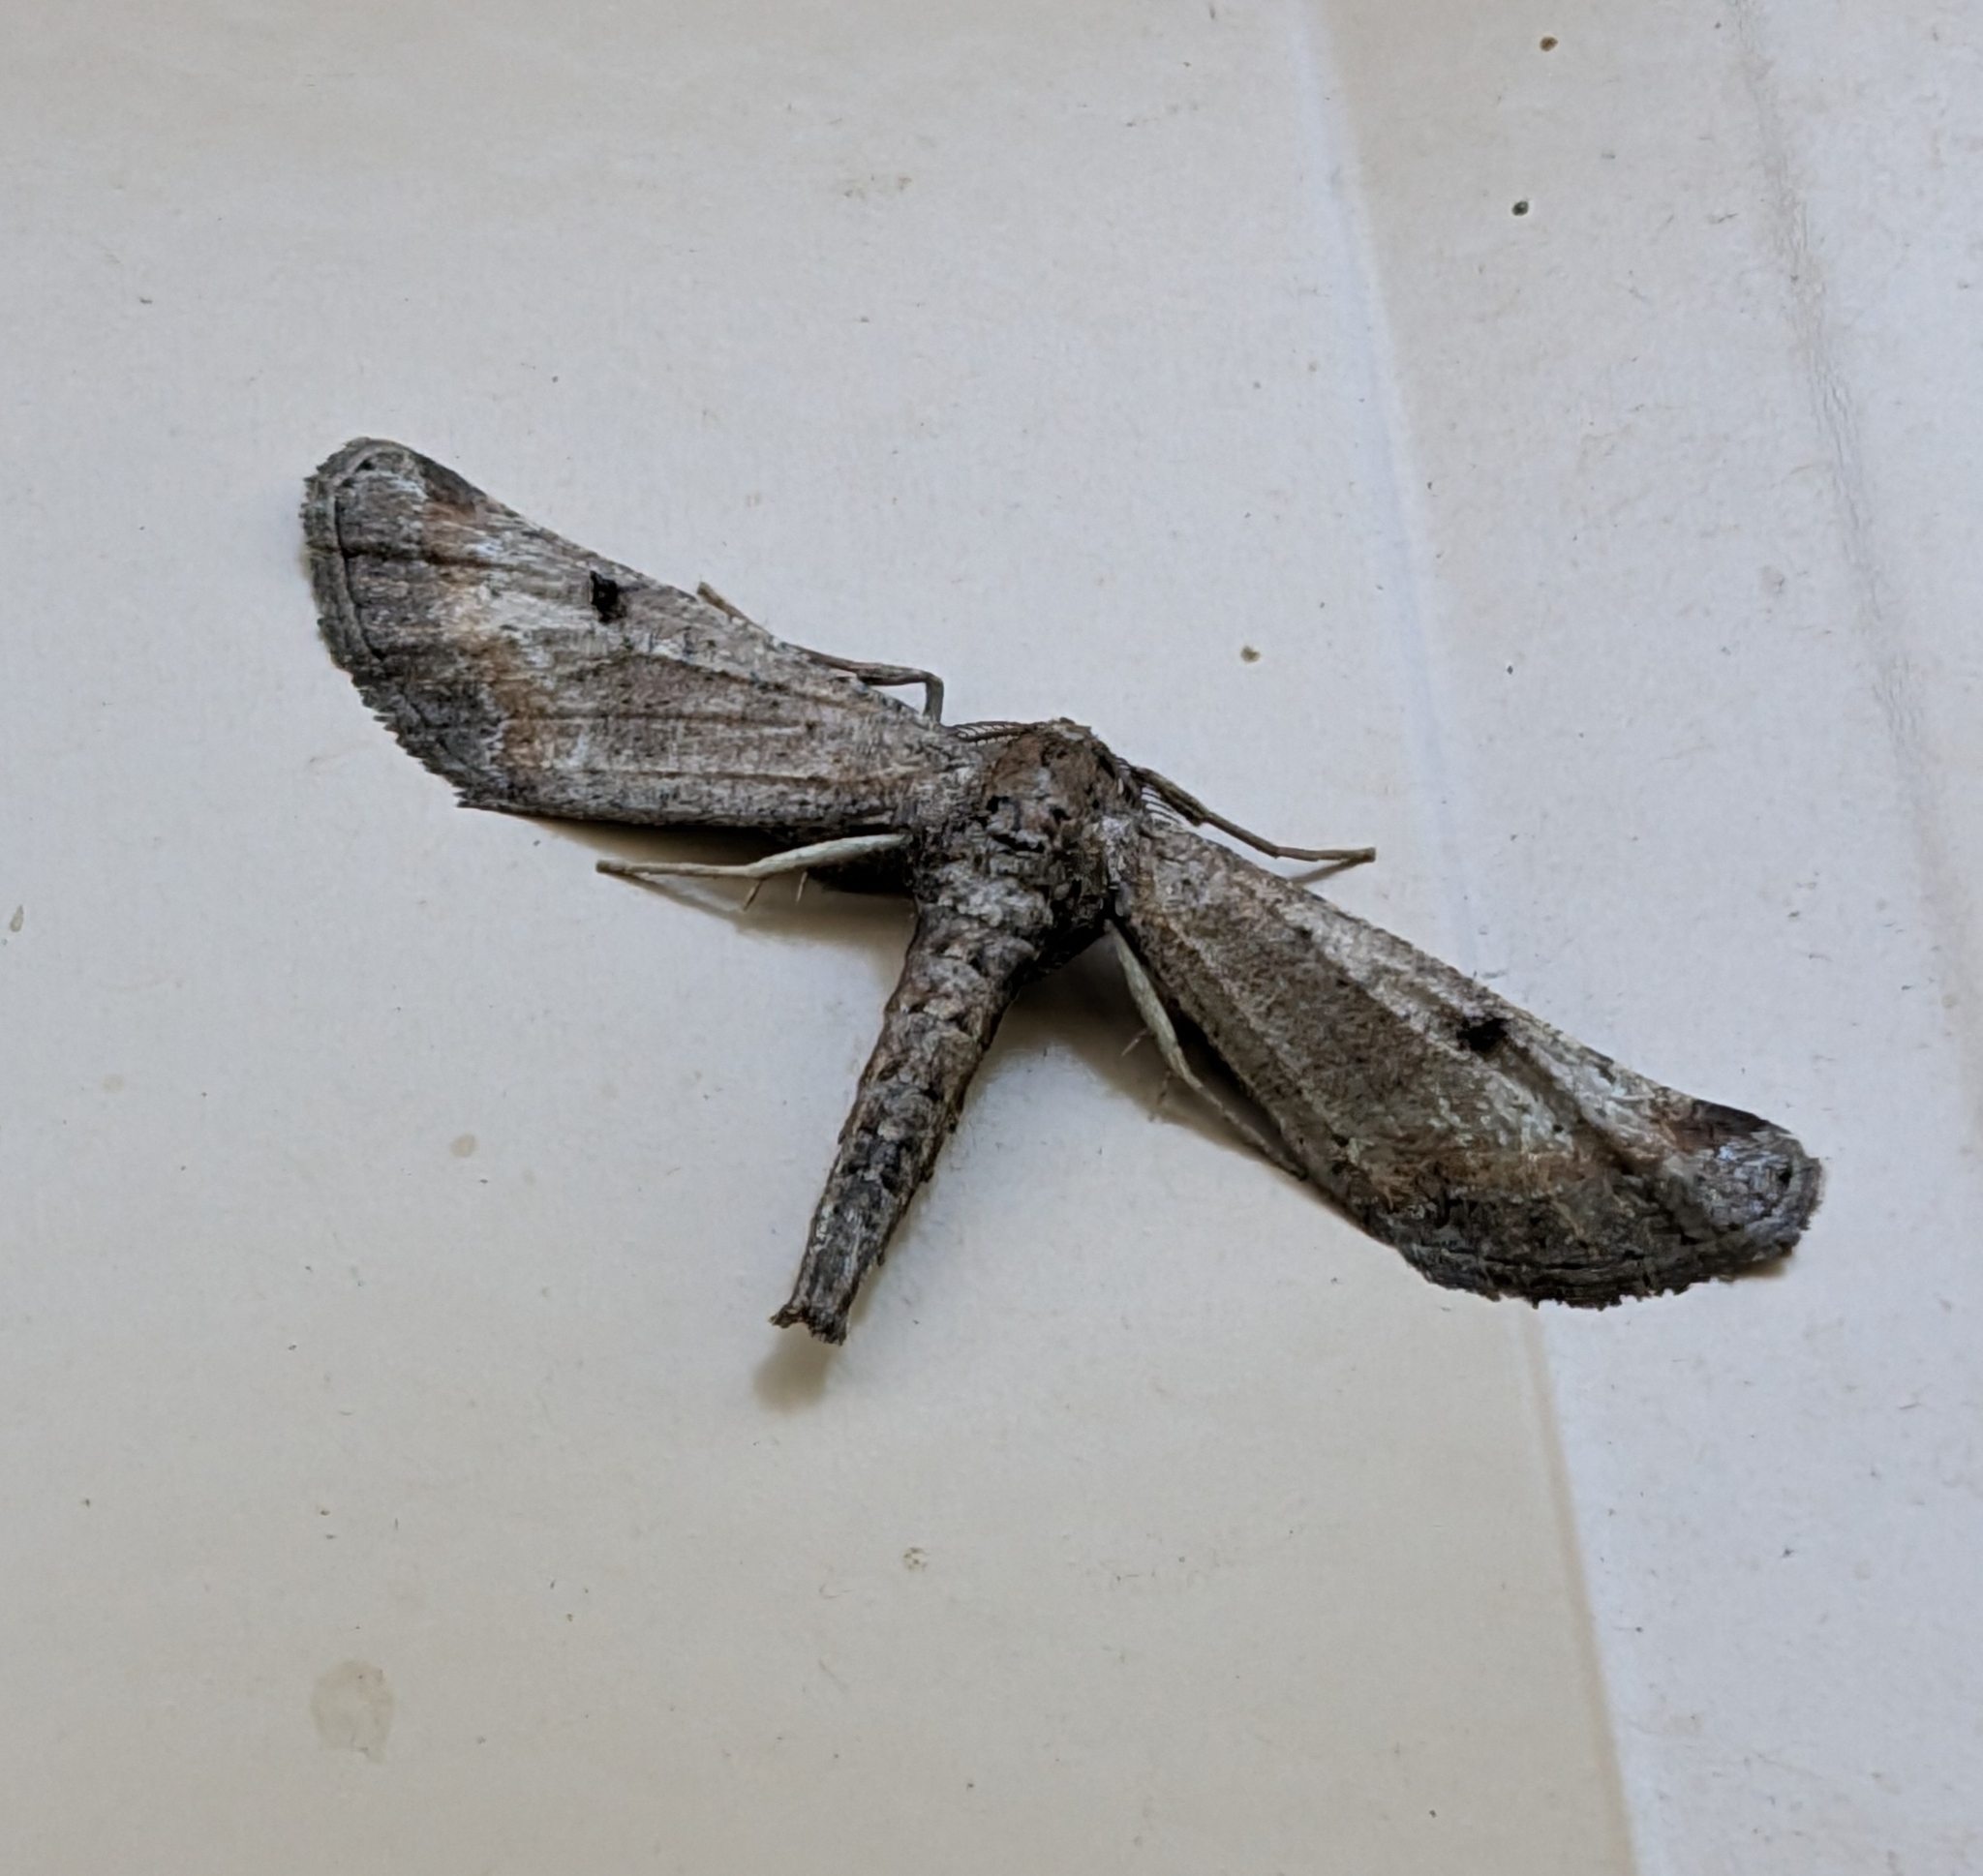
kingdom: Animalia
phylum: Arthropoda
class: Insecta
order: Lepidoptera
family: Geometridae
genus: Tornos
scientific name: Tornos scolopacinaria
